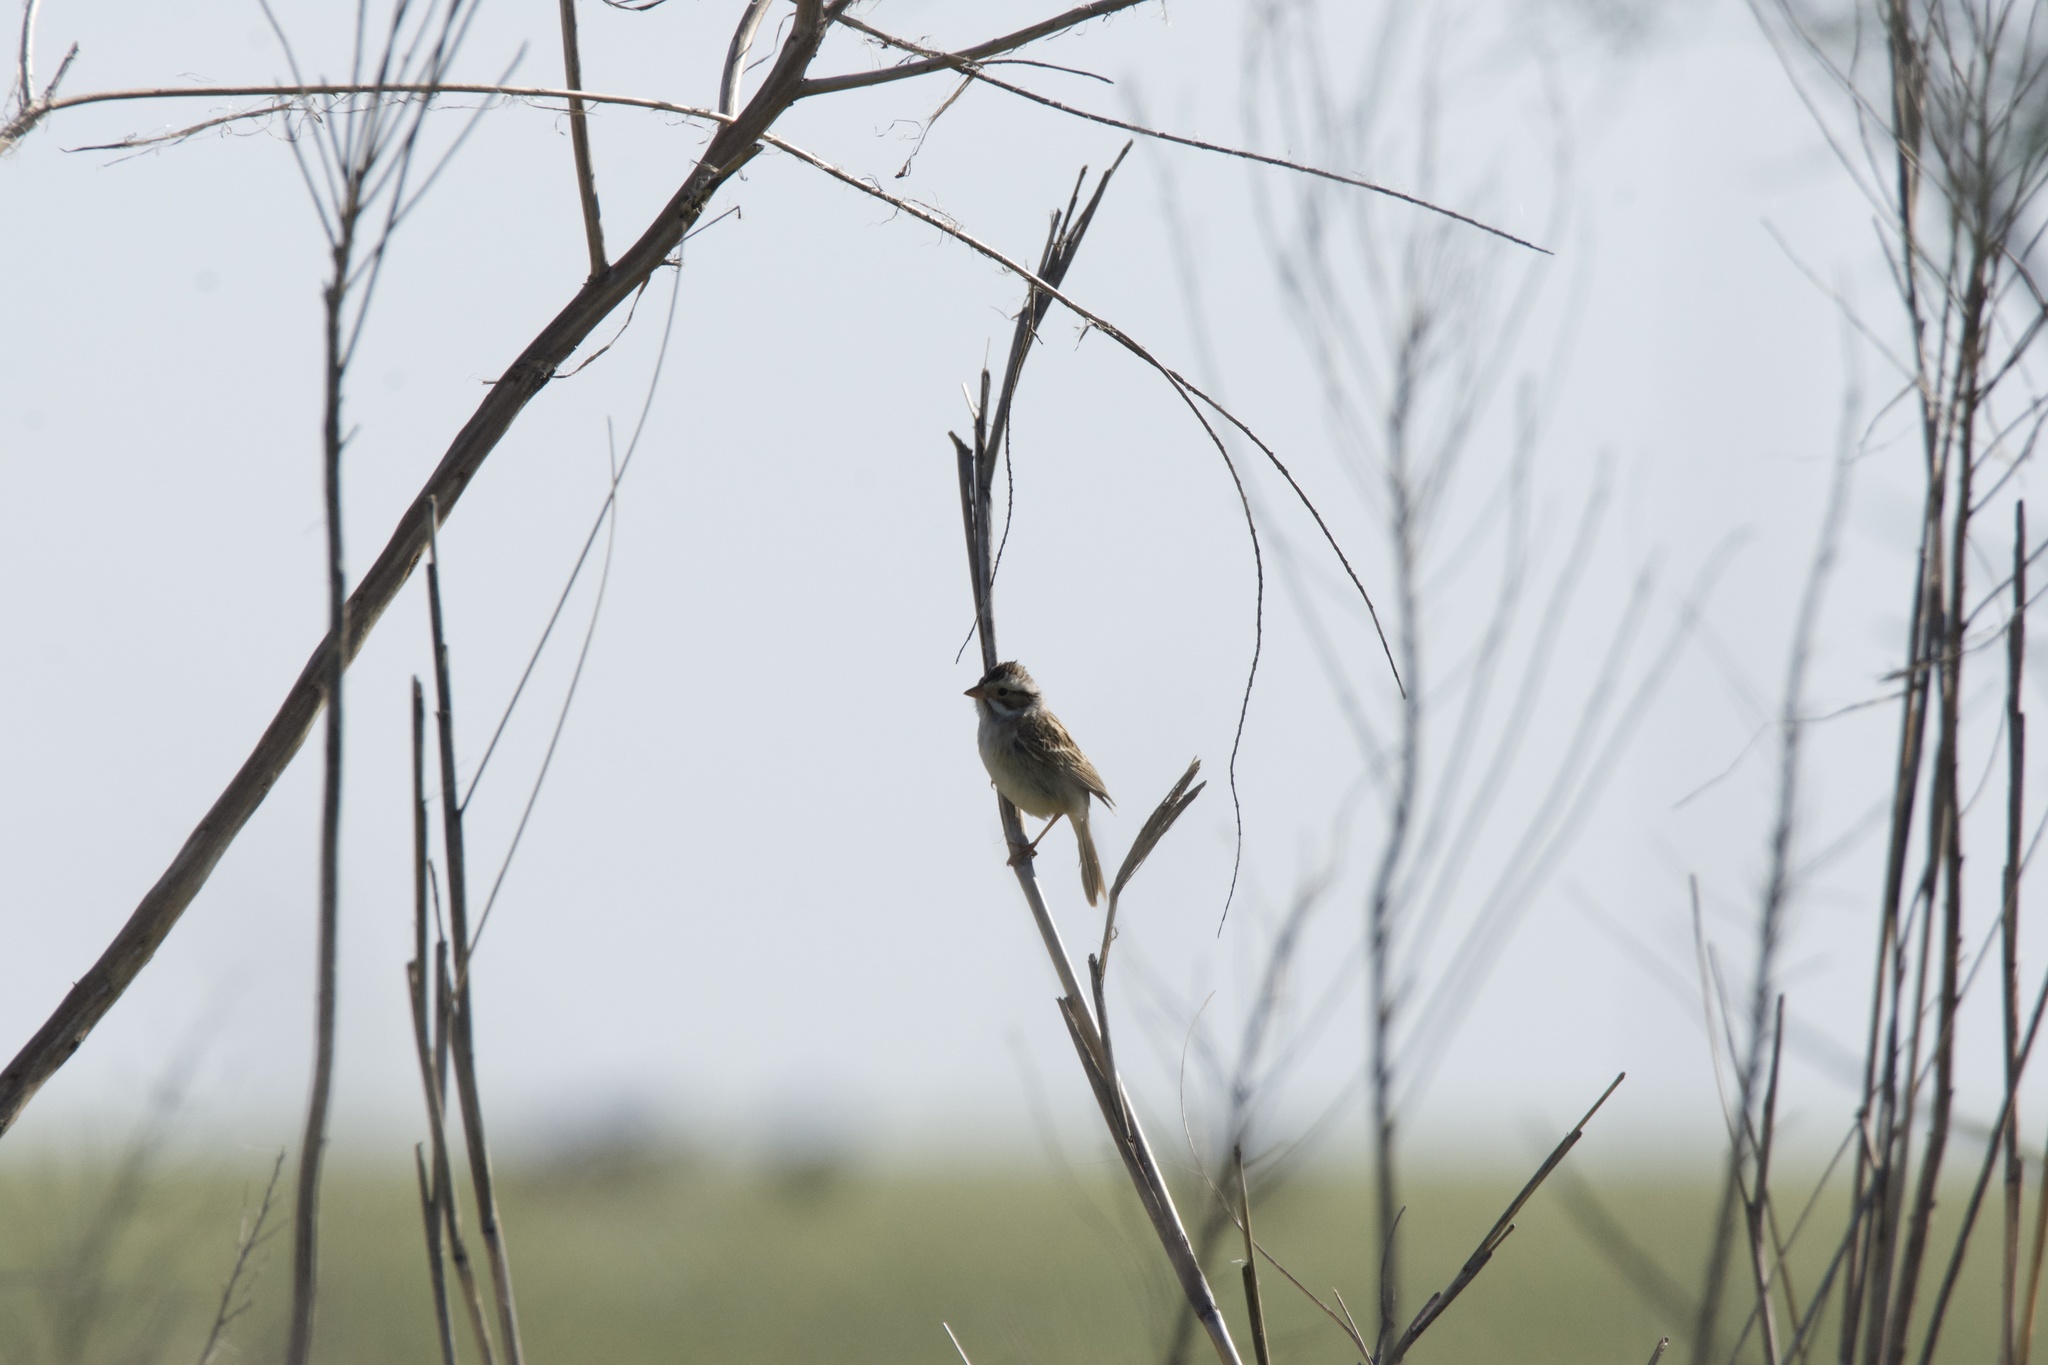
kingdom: Animalia
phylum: Chordata
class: Aves
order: Passeriformes
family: Passerellidae
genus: Spizella
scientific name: Spizella pallida
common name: Clay-colored sparrow
